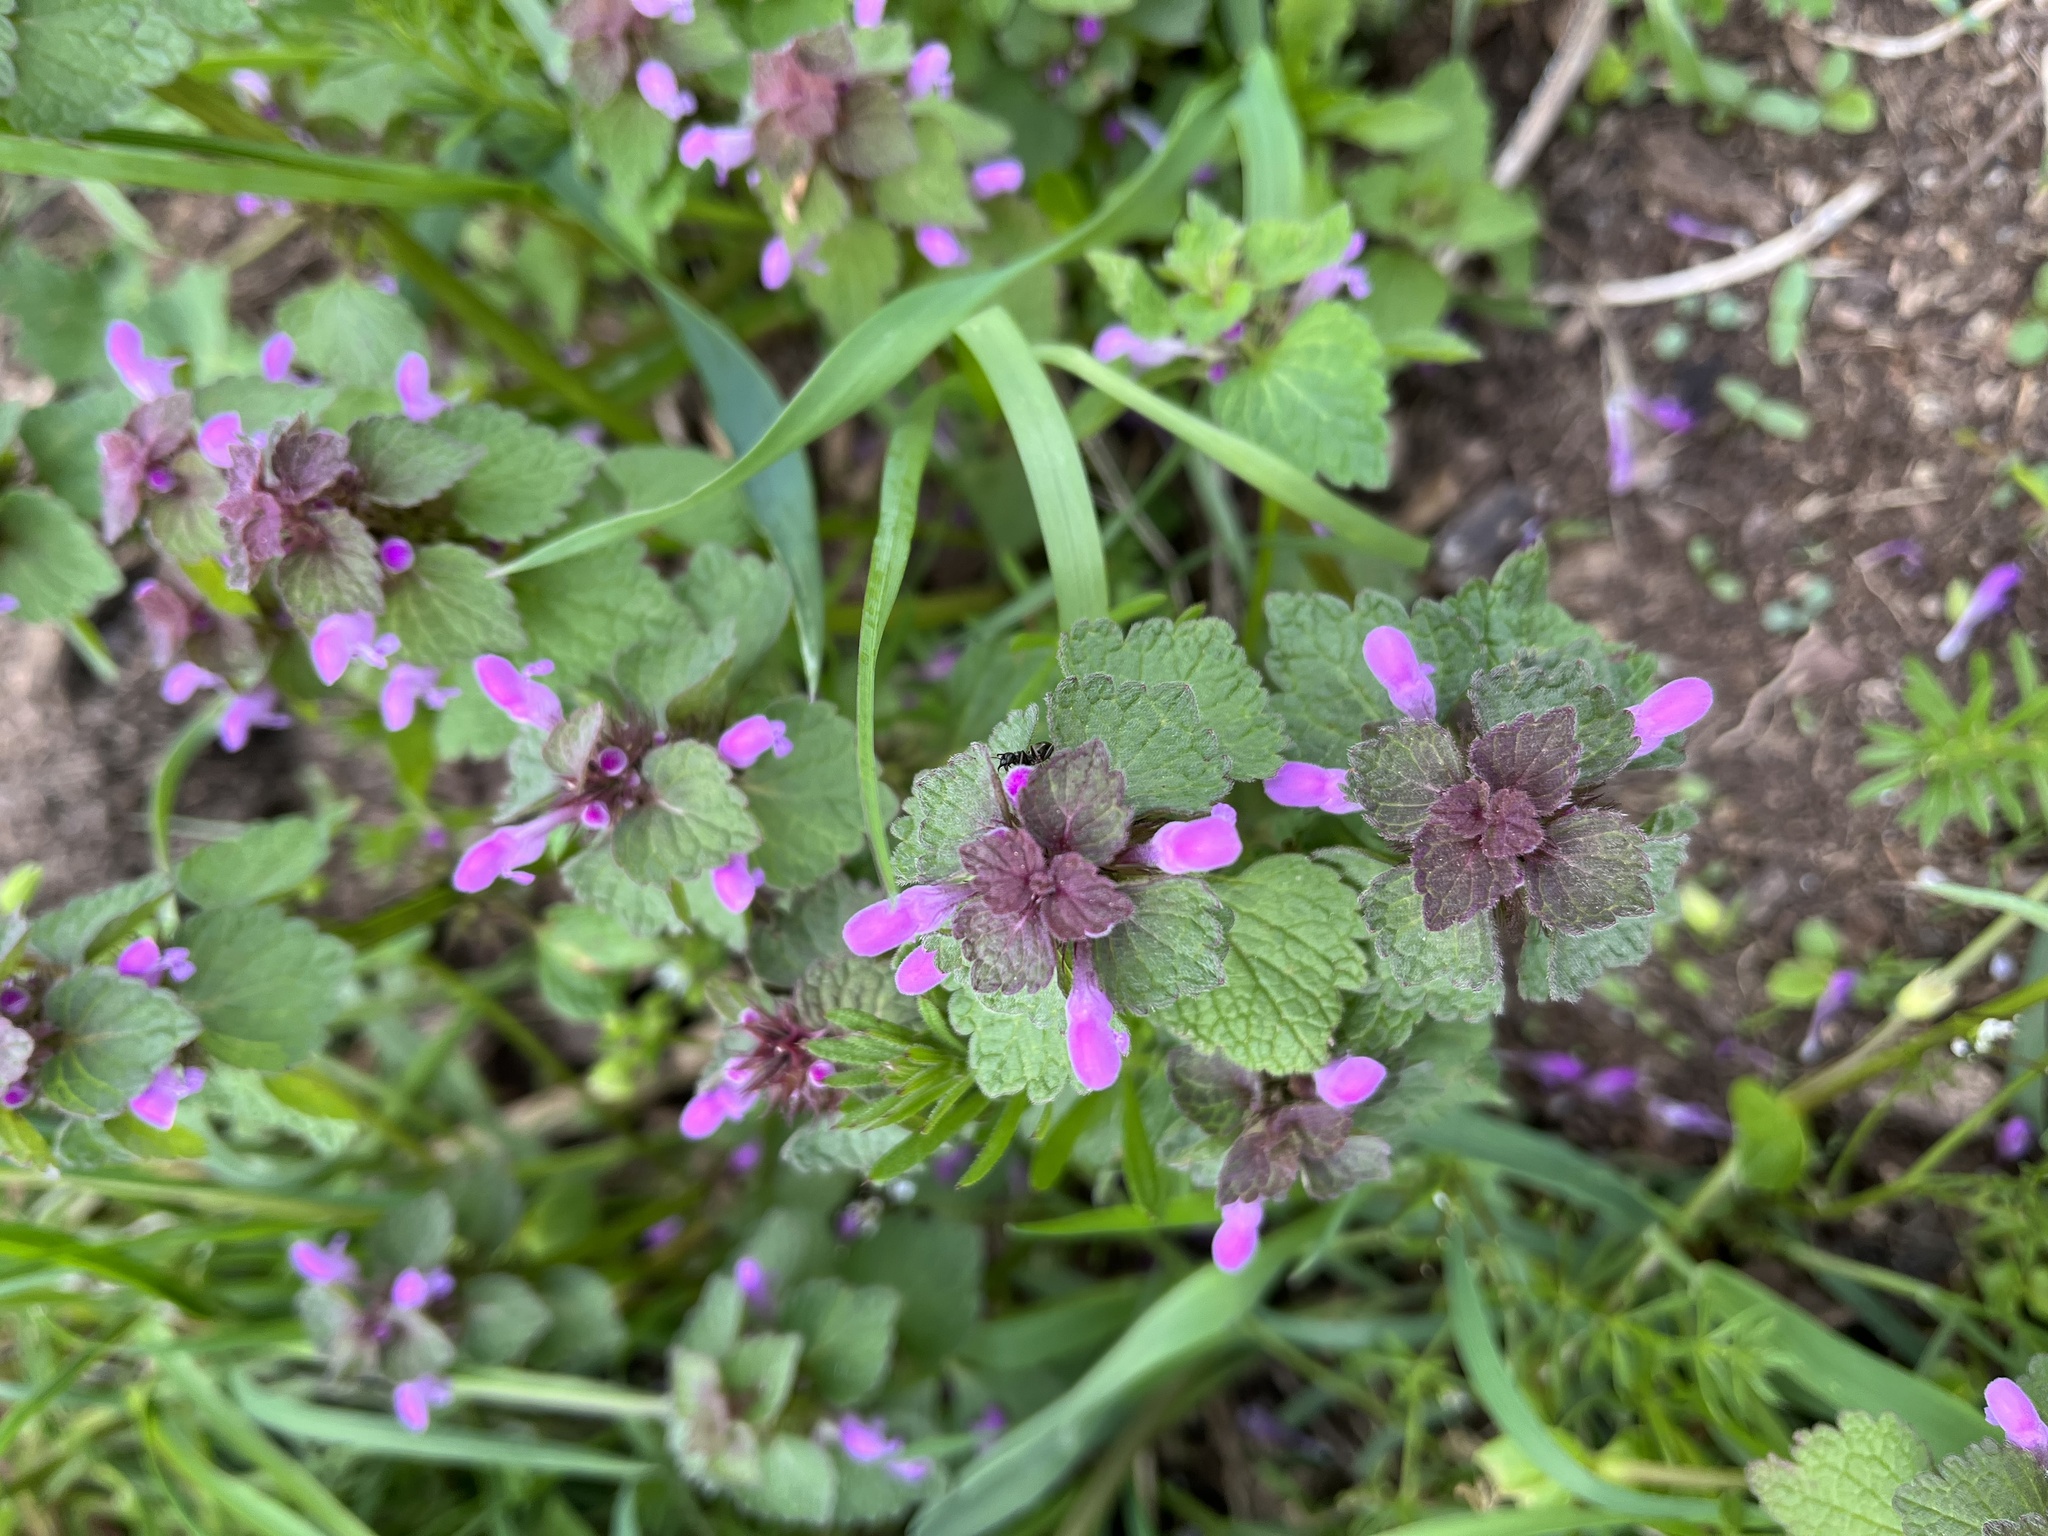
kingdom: Plantae
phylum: Tracheophyta
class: Magnoliopsida
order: Lamiales
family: Lamiaceae
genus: Lamium
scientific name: Lamium purpureum
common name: Red dead-nettle
